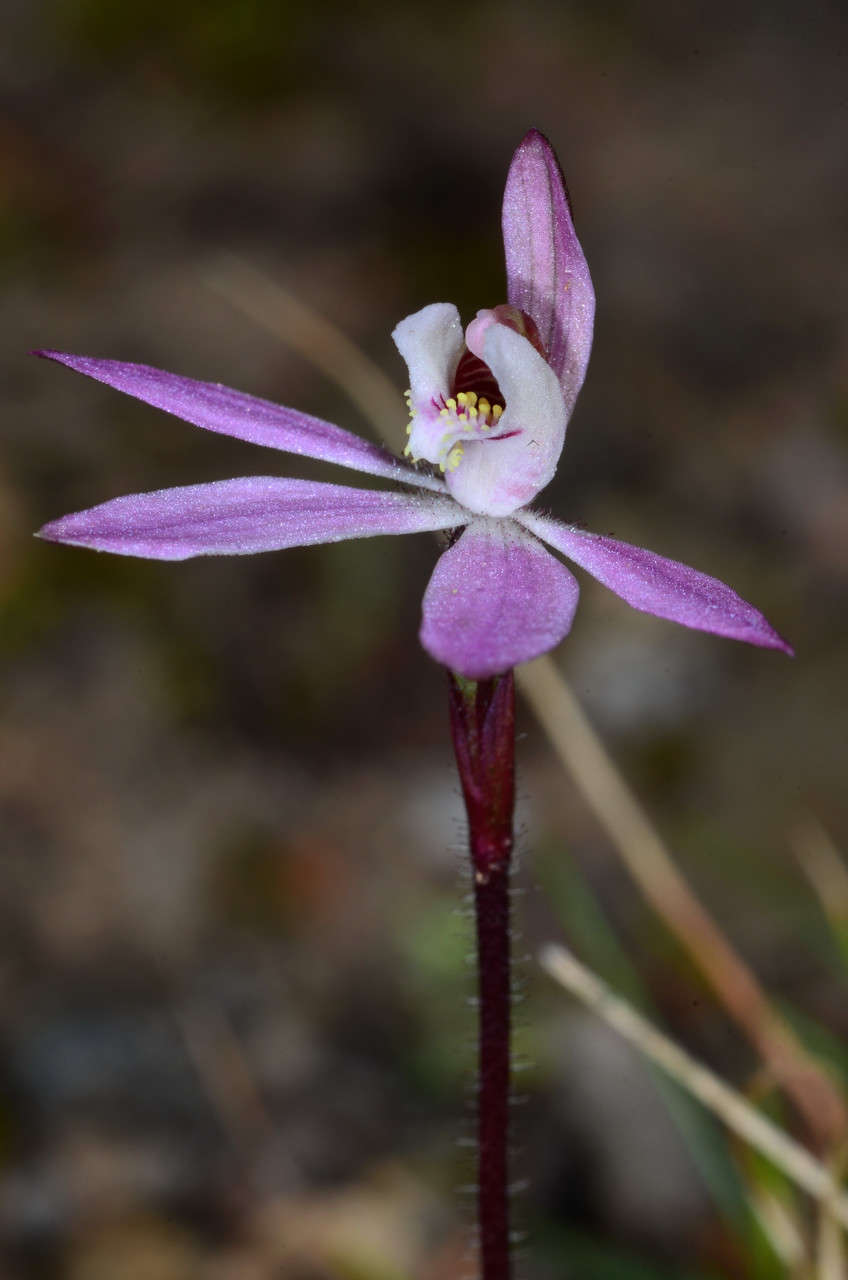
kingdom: Plantae
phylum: Tracheophyta
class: Liliopsida
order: Asparagales
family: Orchidaceae
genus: Caladenia
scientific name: Caladenia fuscata
